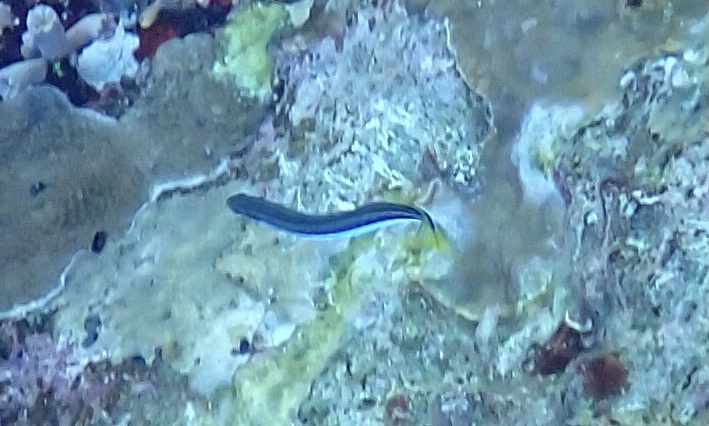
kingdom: Animalia
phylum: Chordata
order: Perciformes
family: Blenniidae
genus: Plagiotremus
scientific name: Plagiotremus tapeinosoma
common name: Hit and run blenny
